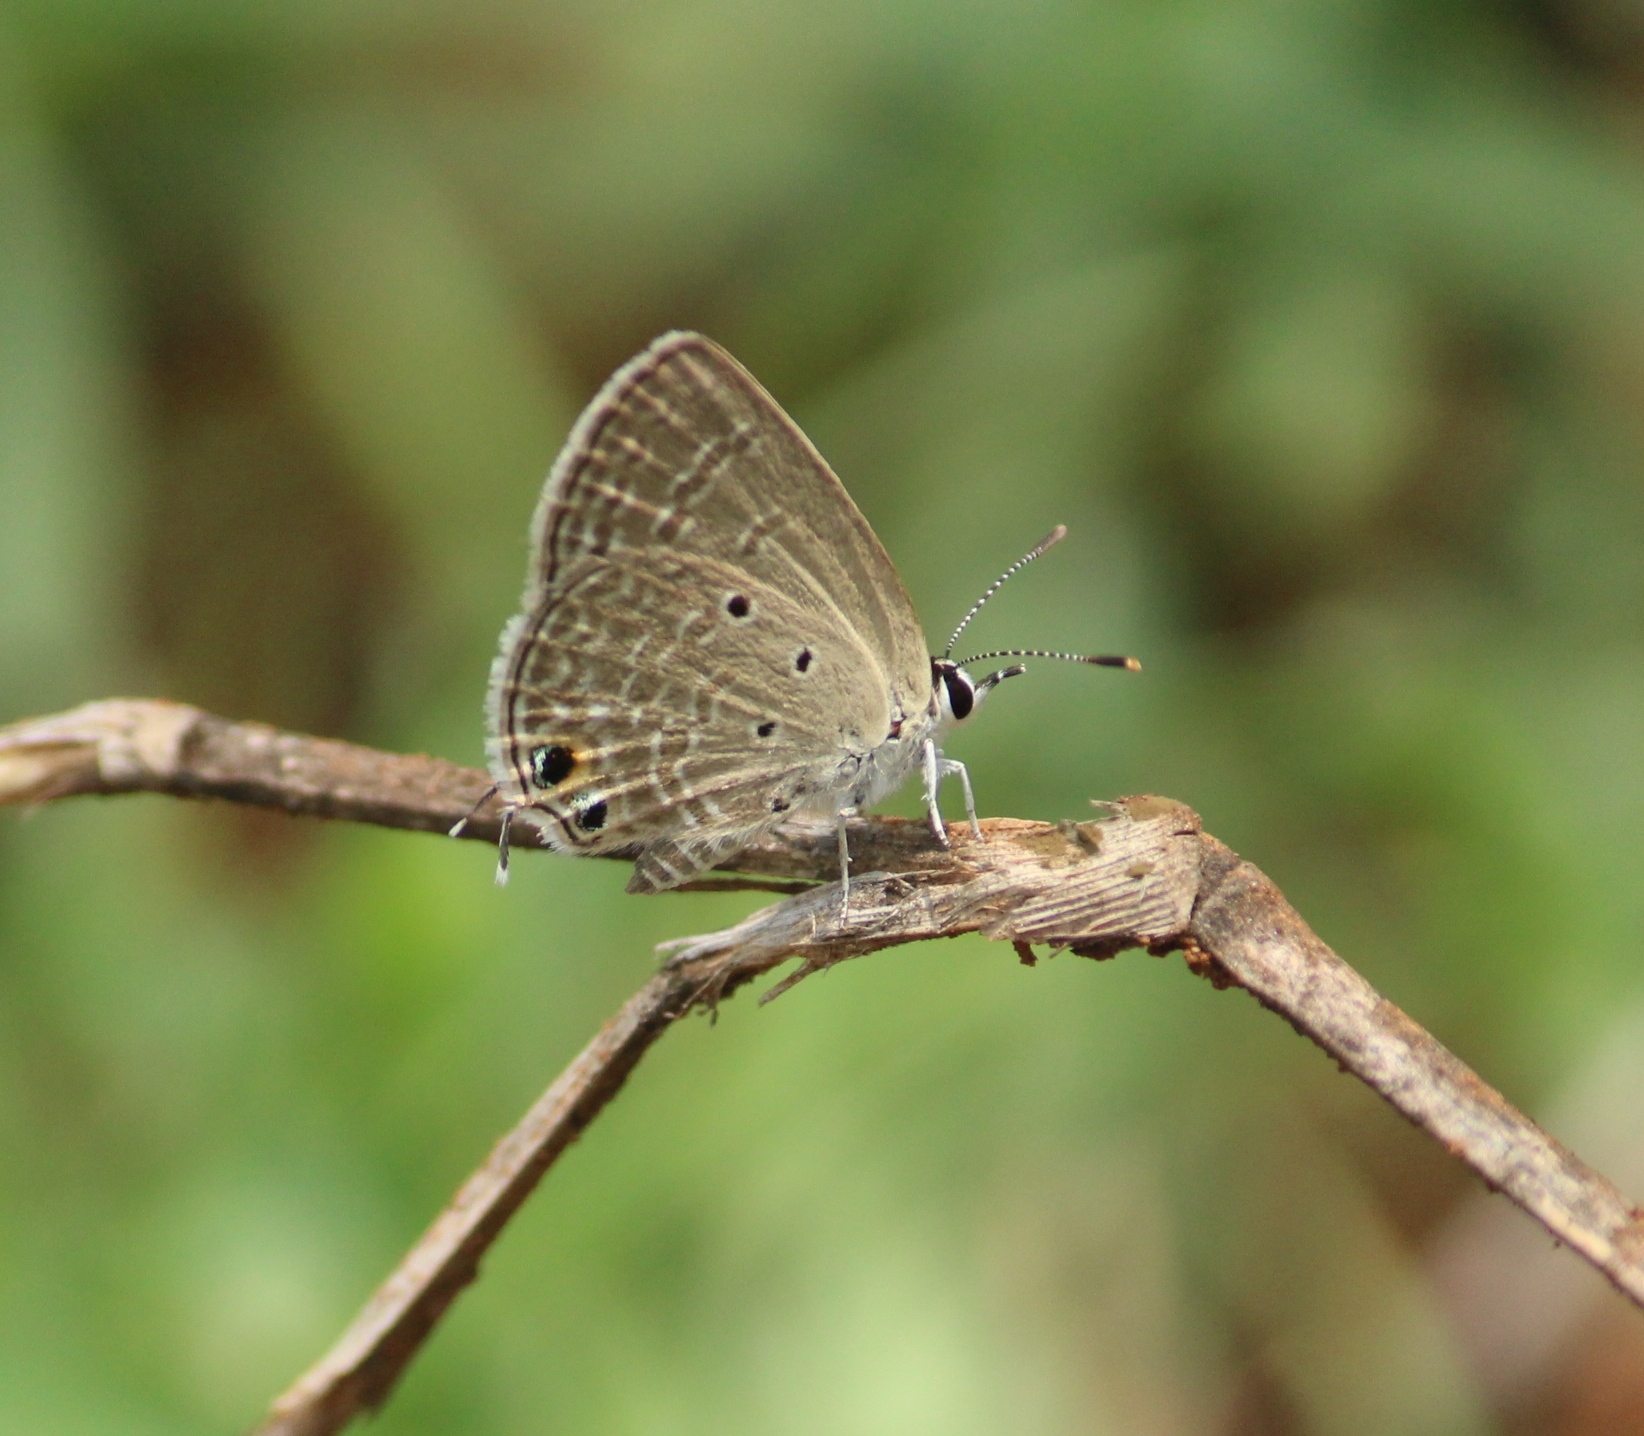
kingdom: Animalia
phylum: Arthropoda
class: Insecta
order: Lepidoptera
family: Lycaenidae
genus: Chilades
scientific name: Chilades parrhasius
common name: Small cupid
